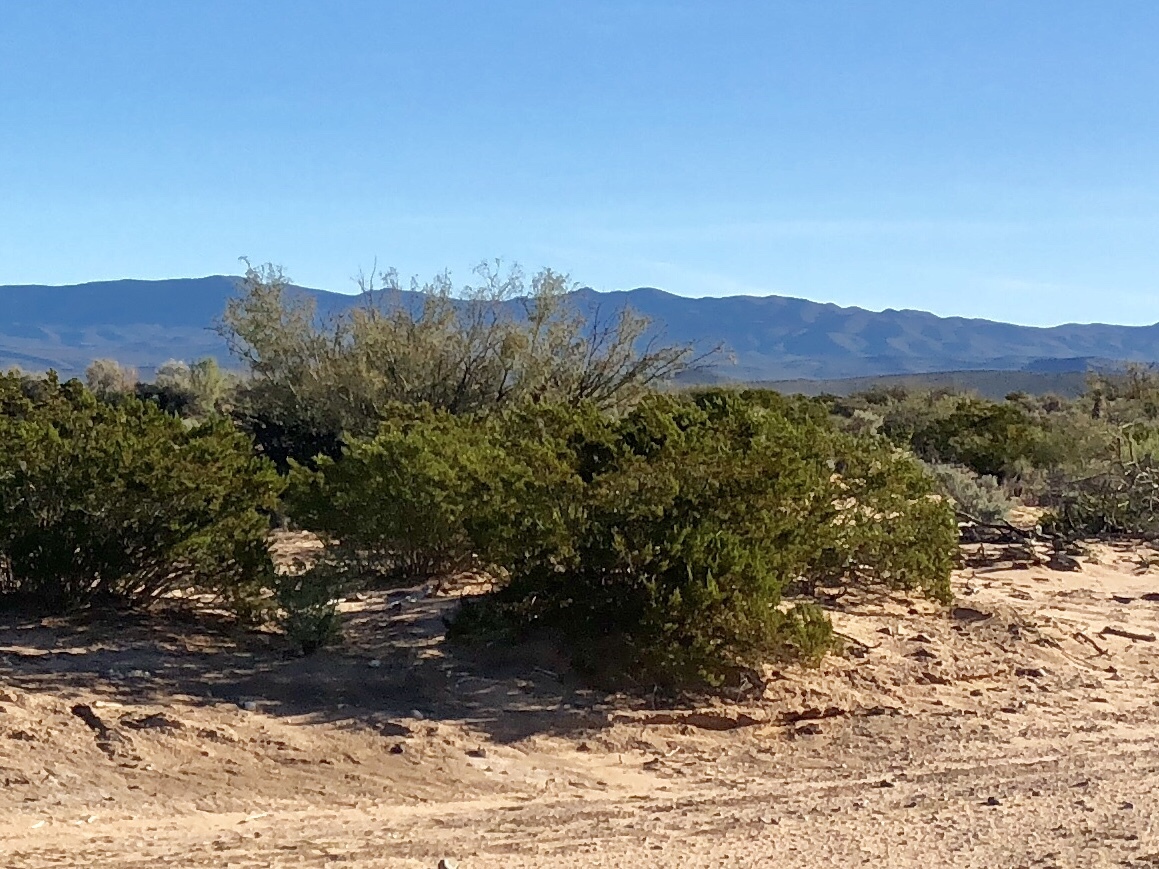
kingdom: Plantae
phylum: Tracheophyta
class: Magnoliopsida
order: Zygophyllales
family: Zygophyllaceae
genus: Larrea
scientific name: Larrea tridentata
